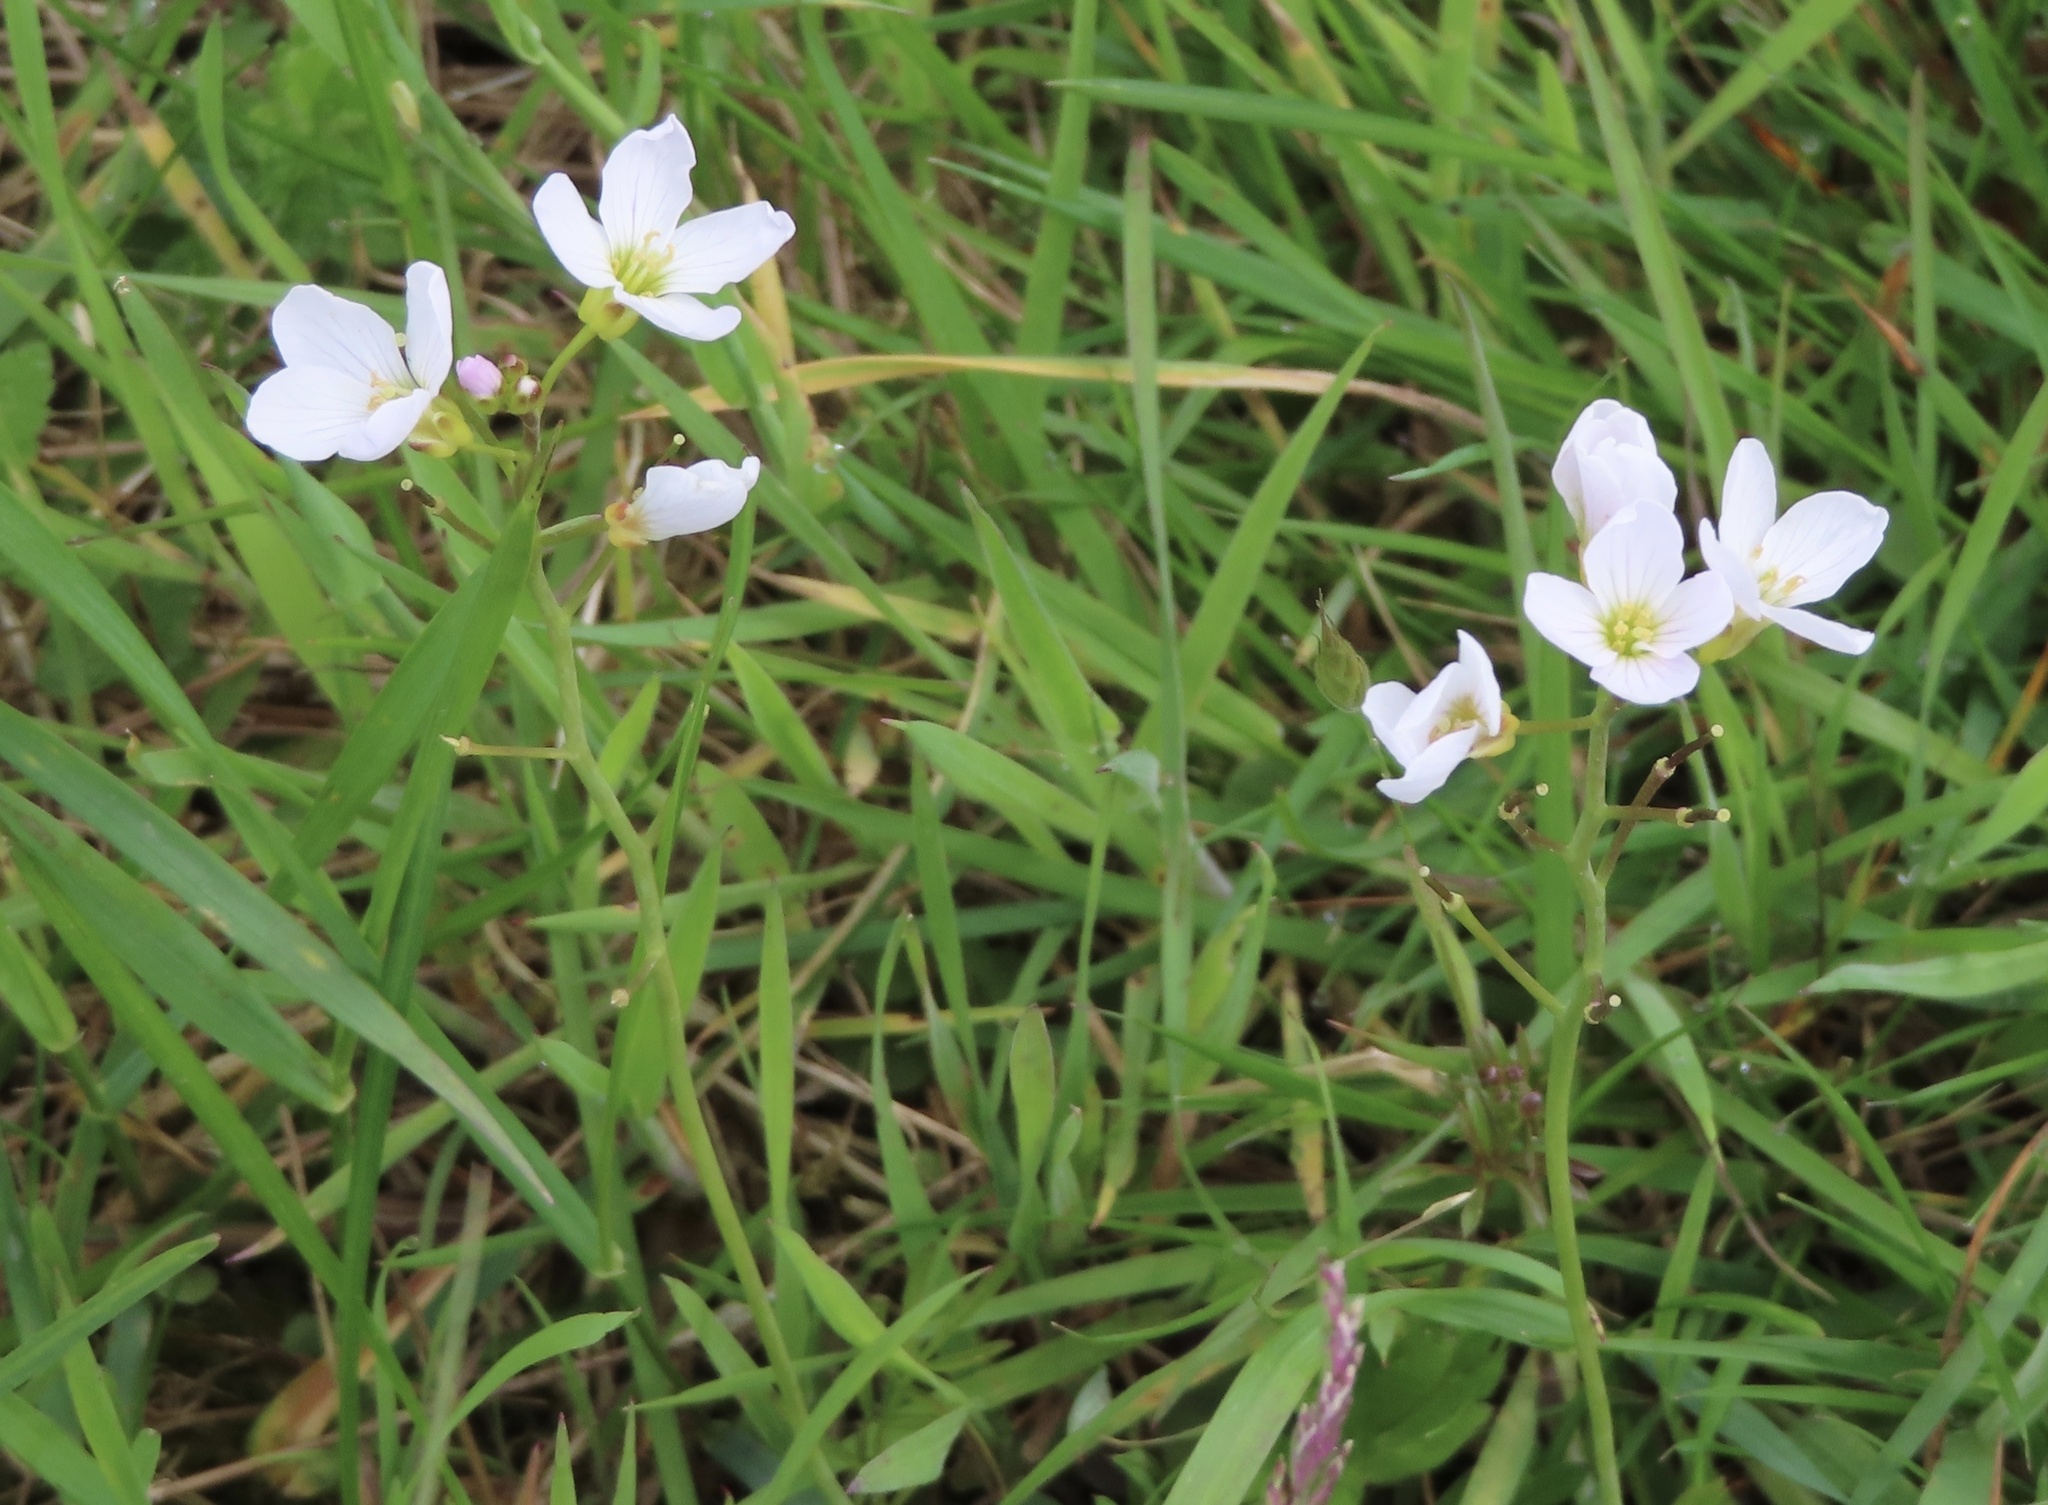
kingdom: Plantae
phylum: Tracheophyta
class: Magnoliopsida
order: Brassicales
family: Brassicaceae
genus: Cardamine
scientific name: Cardamine pratensis
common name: Cuckoo flower
